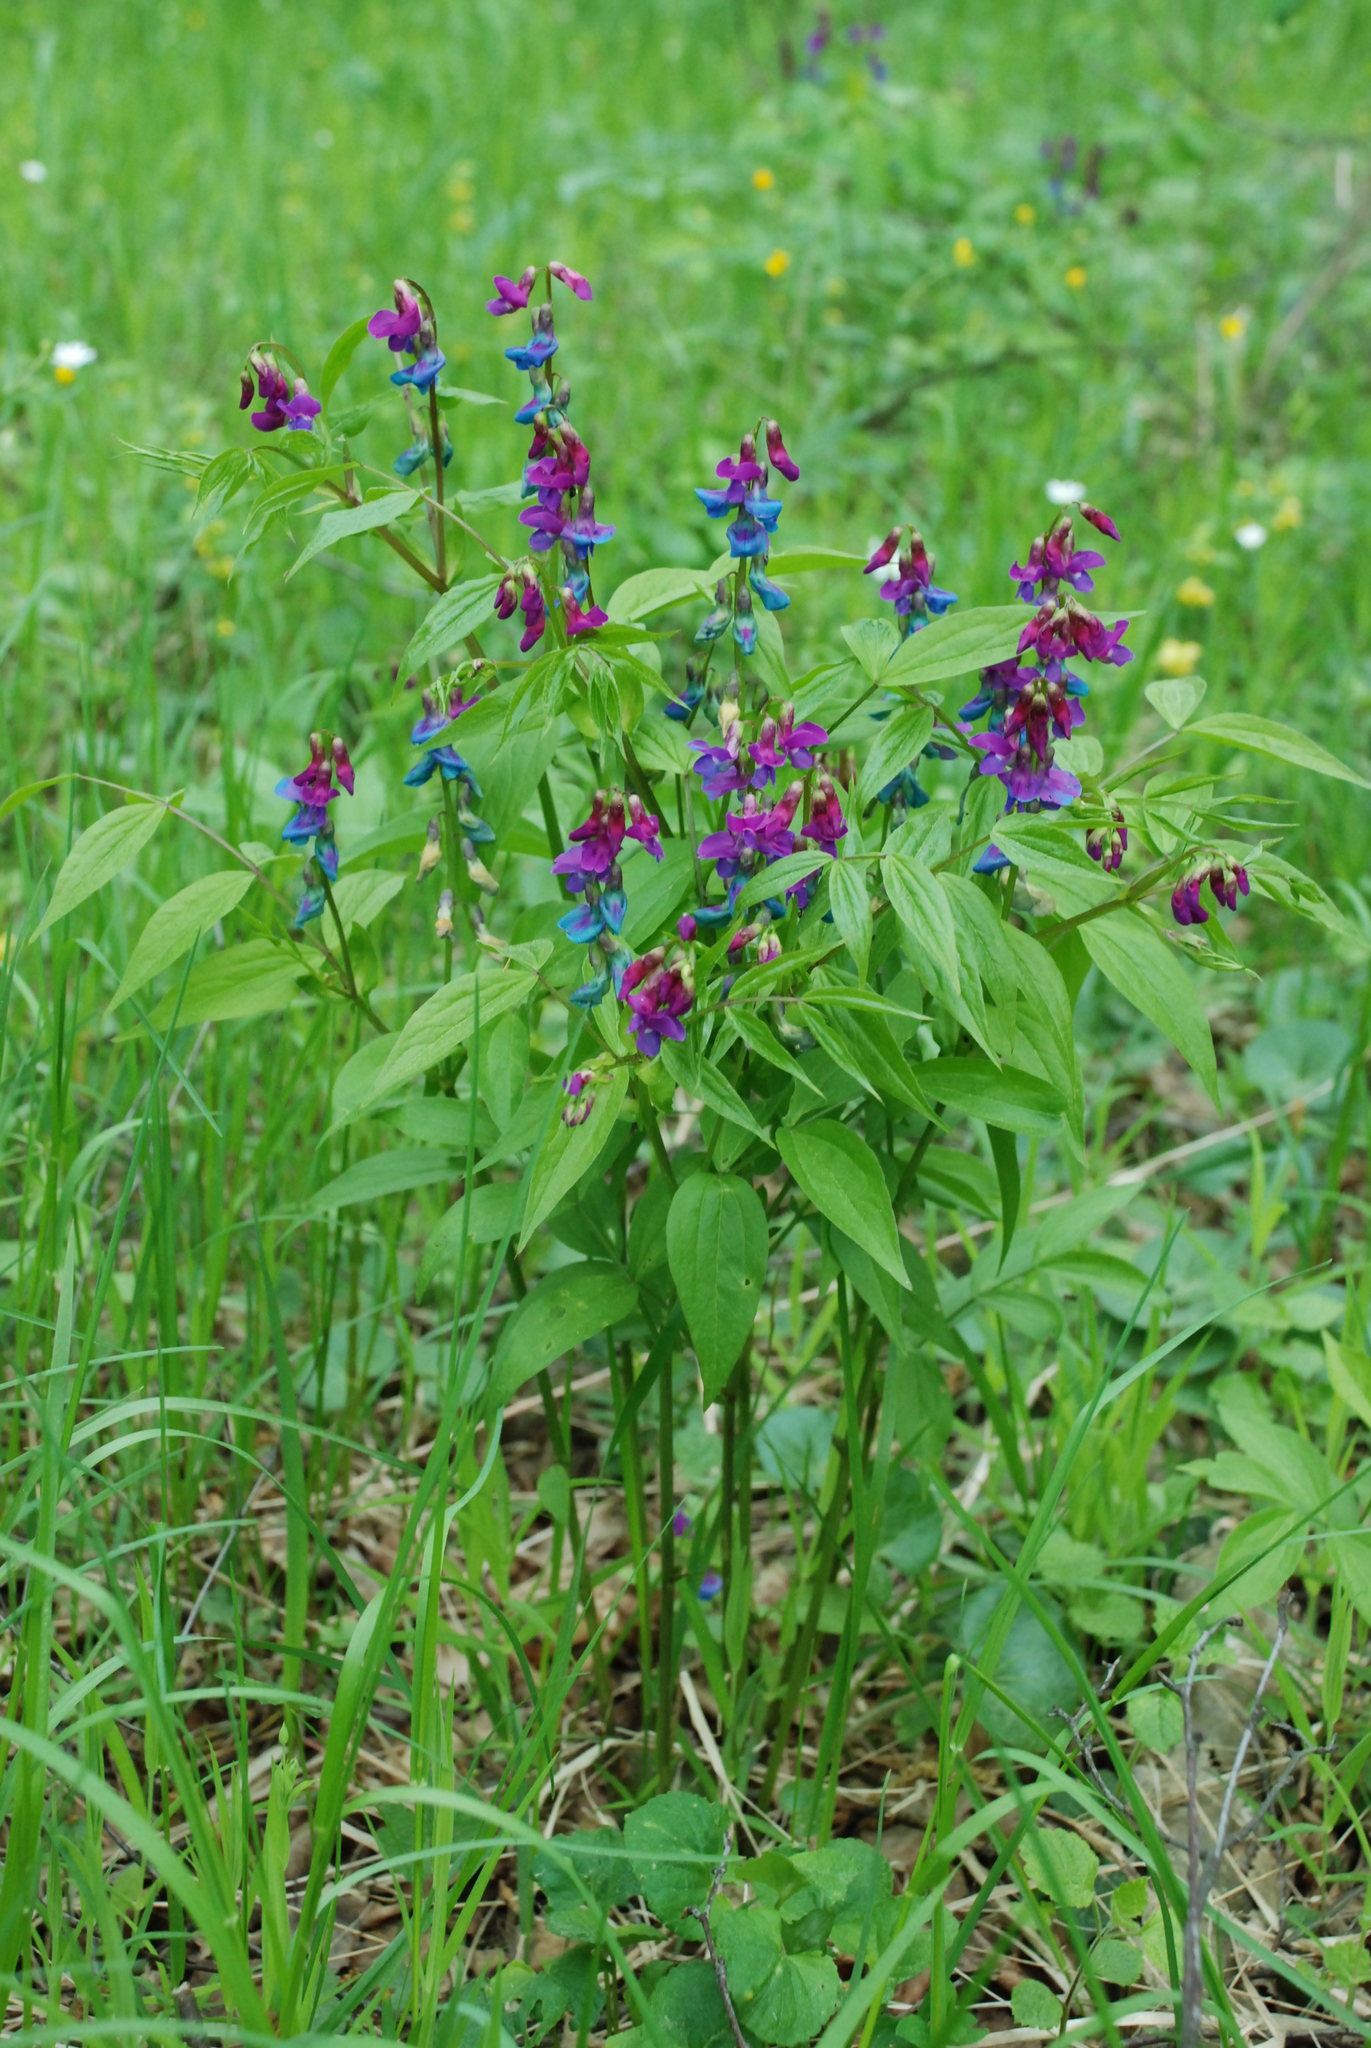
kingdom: Plantae
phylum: Tracheophyta
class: Magnoliopsida
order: Fabales
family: Fabaceae
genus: Lathyrus
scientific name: Lathyrus vernus
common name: Spring pea
